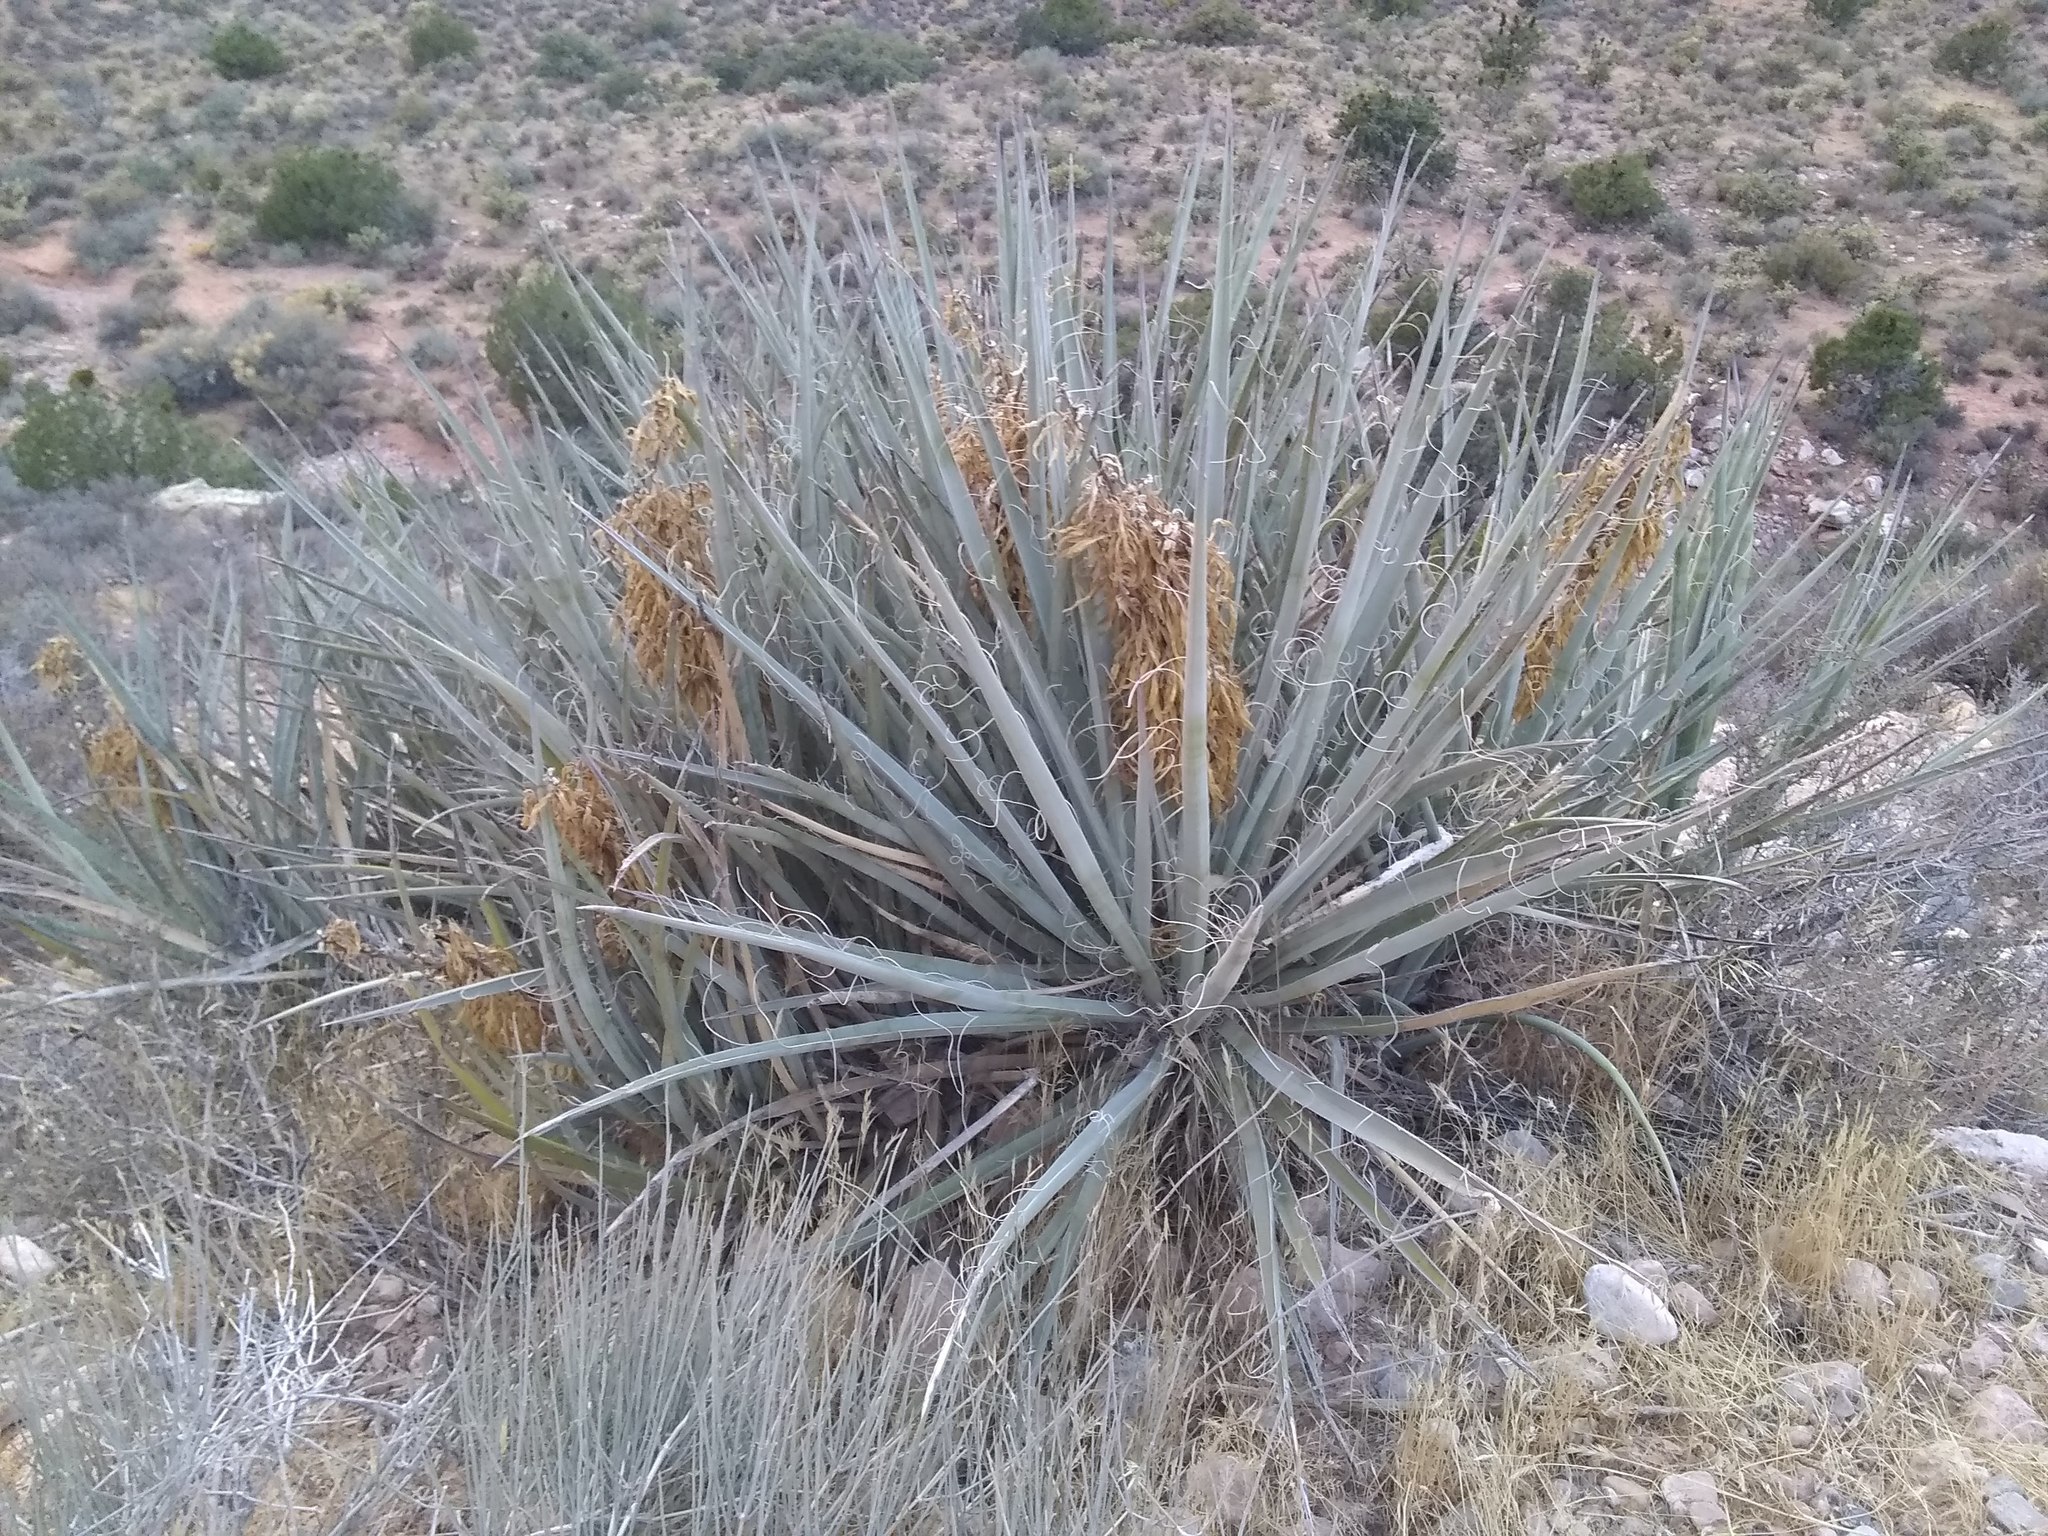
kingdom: Plantae
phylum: Tracheophyta
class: Liliopsida
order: Asparagales
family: Asparagaceae
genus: Yucca
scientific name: Yucca baccata
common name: Banana yucca
